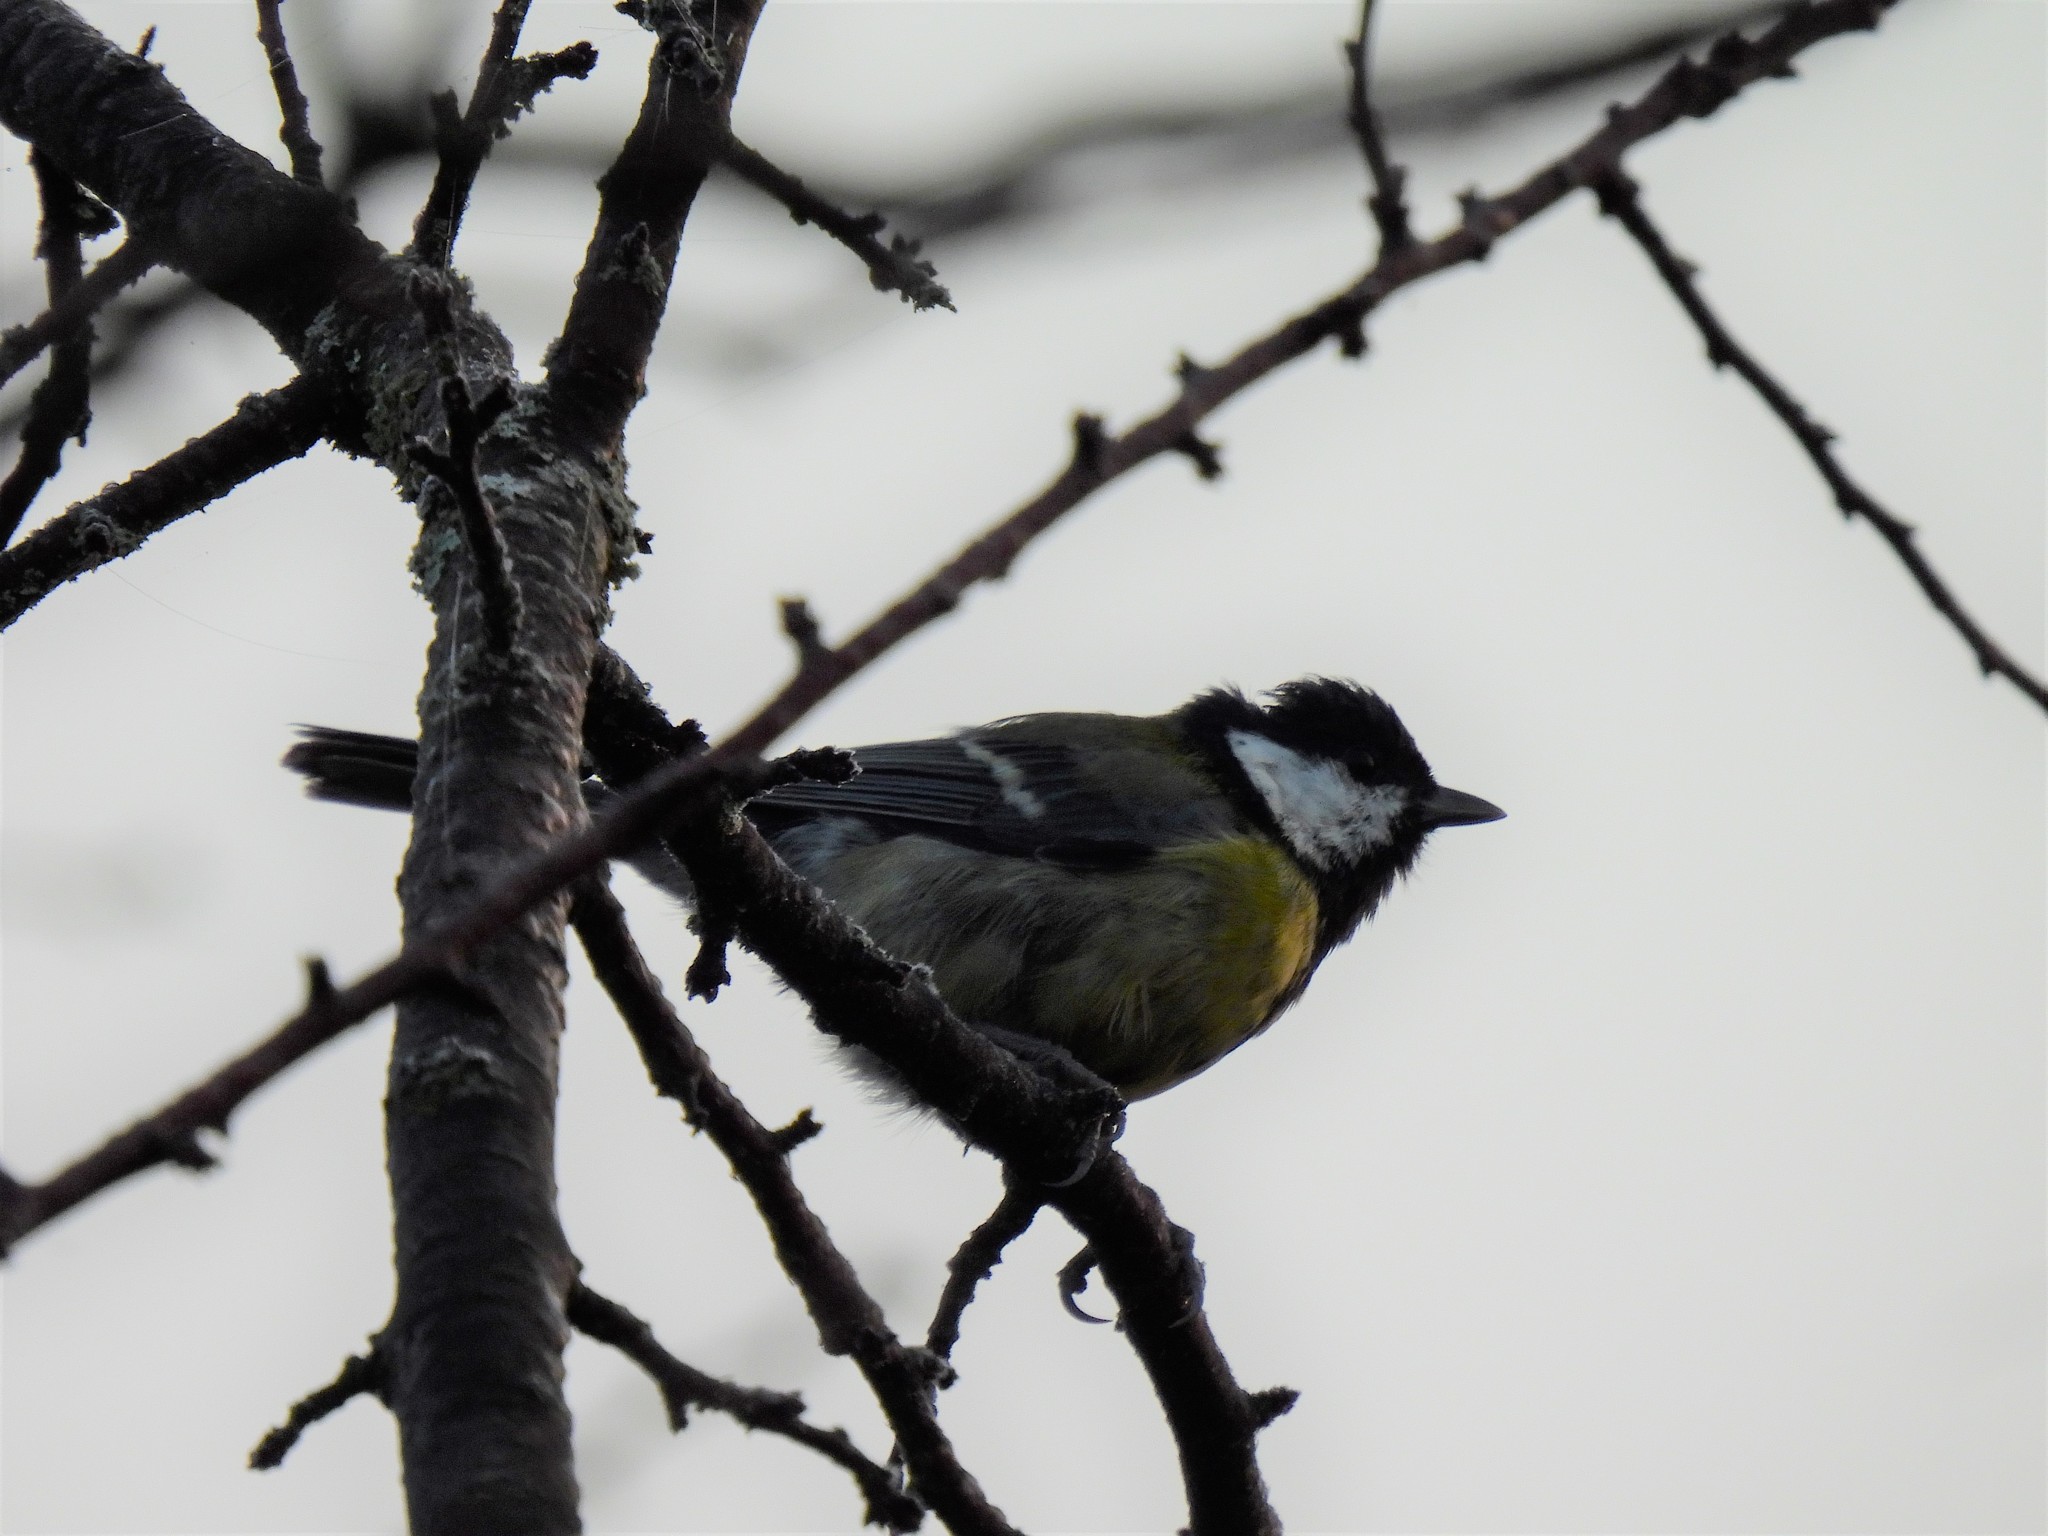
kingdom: Animalia
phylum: Chordata
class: Aves
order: Passeriformes
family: Paridae
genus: Parus
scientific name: Parus major
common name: Great tit
